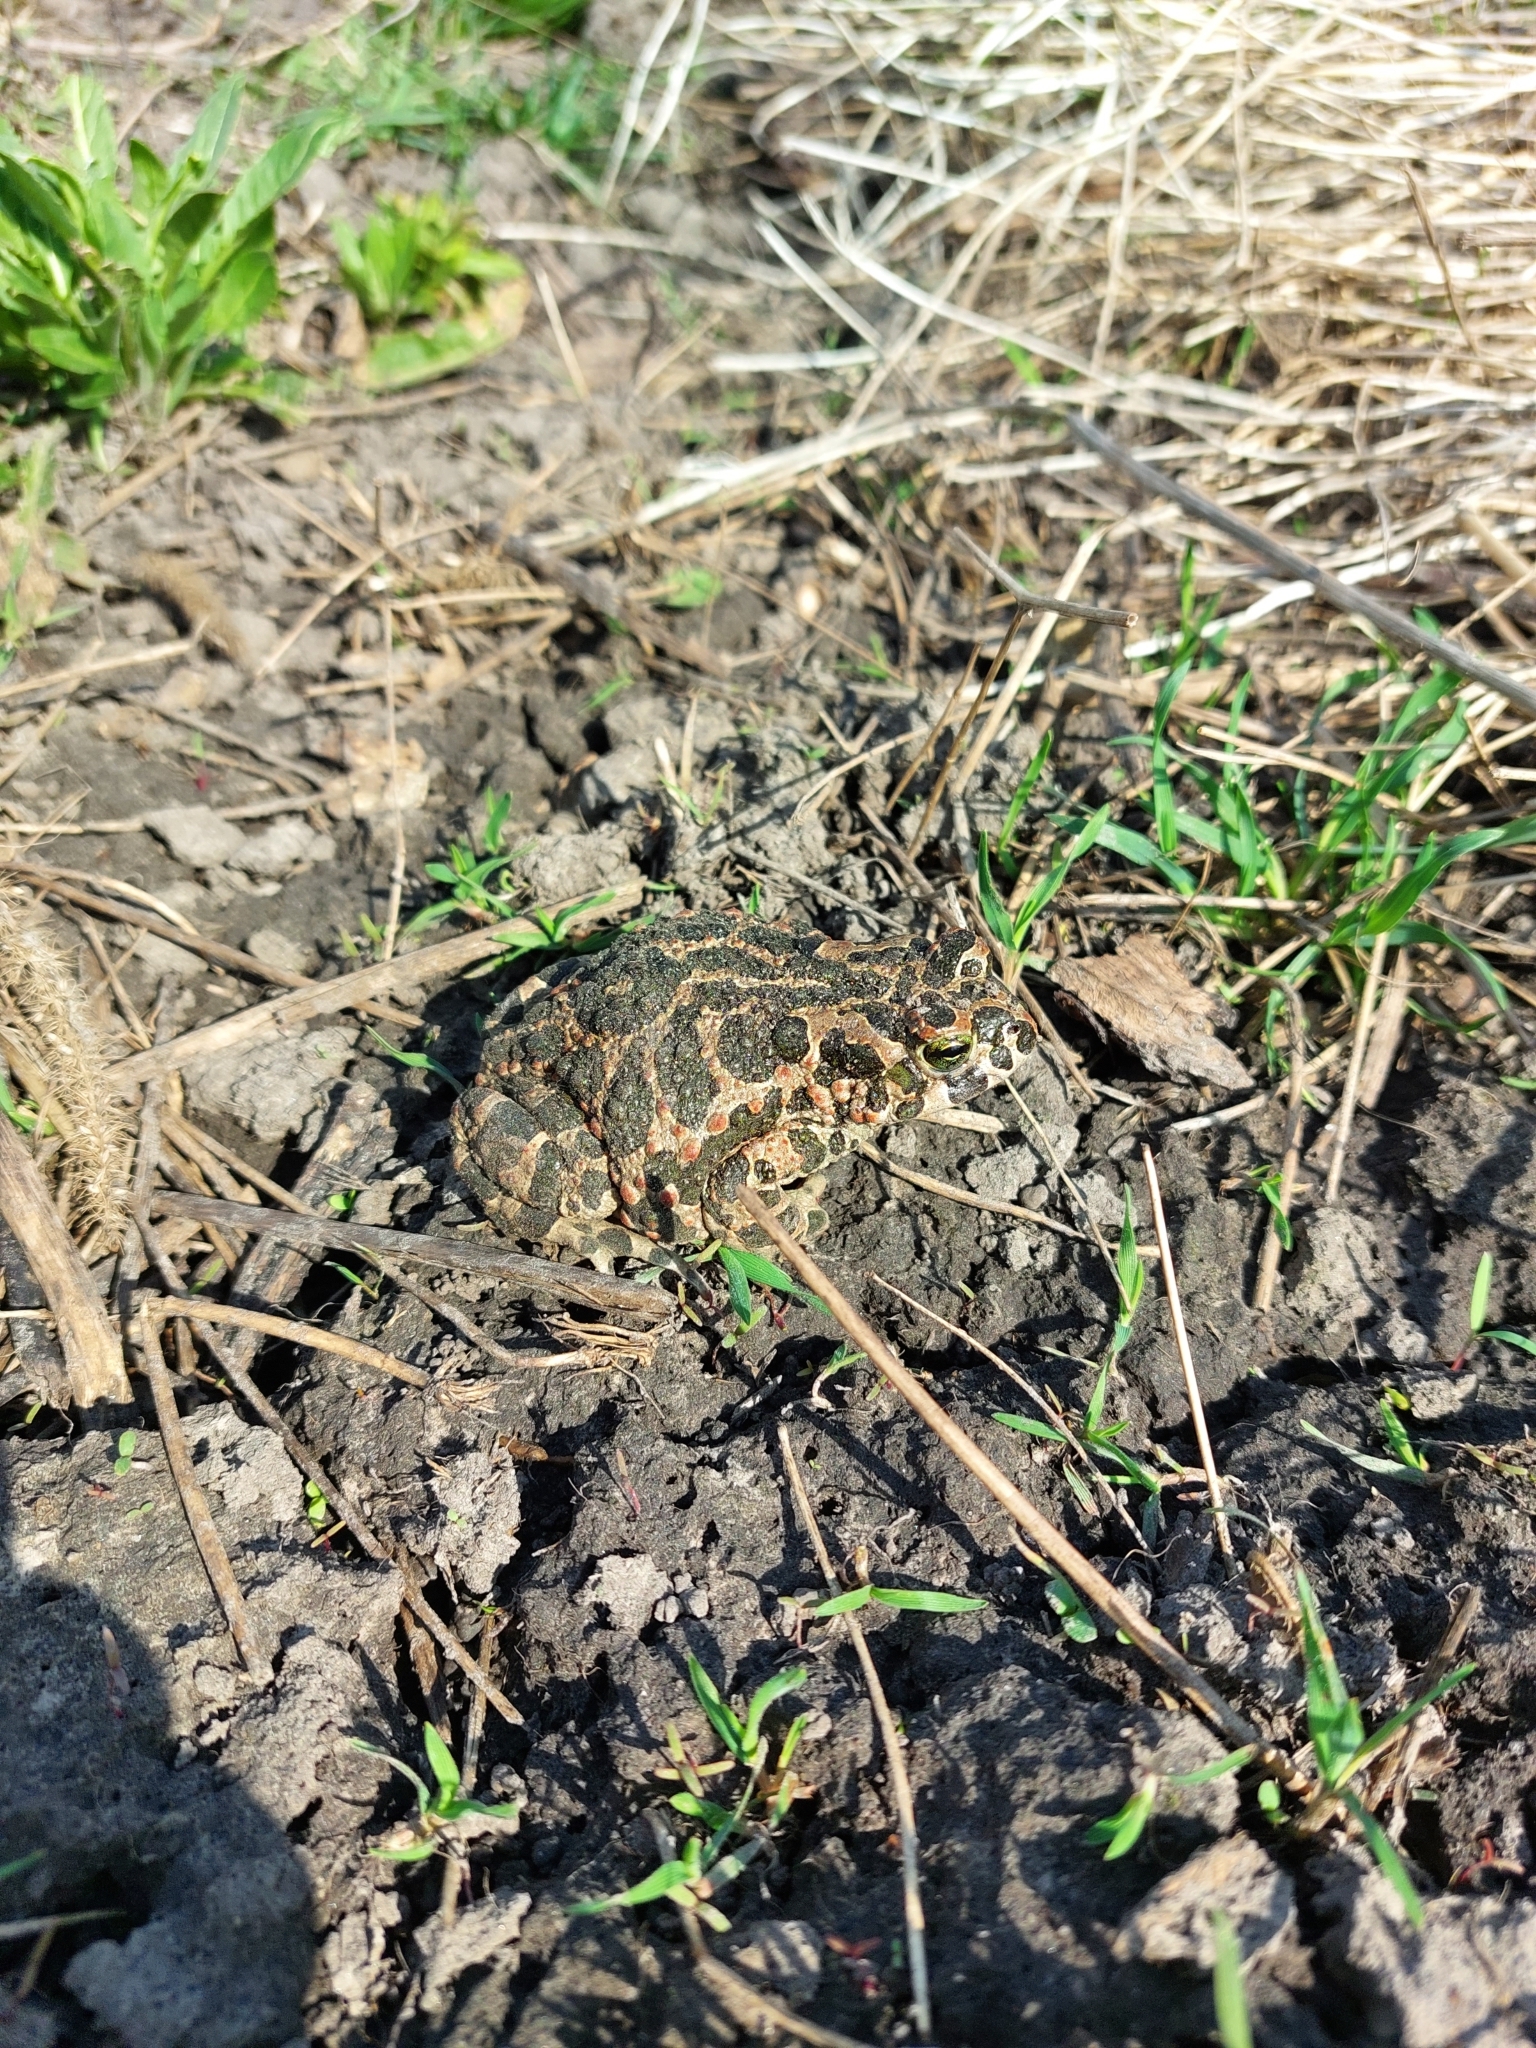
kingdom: Animalia
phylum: Chordata
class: Amphibia
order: Anura
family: Bufonidae
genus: Bufotes
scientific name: Bufotes viridis
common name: European green toad
